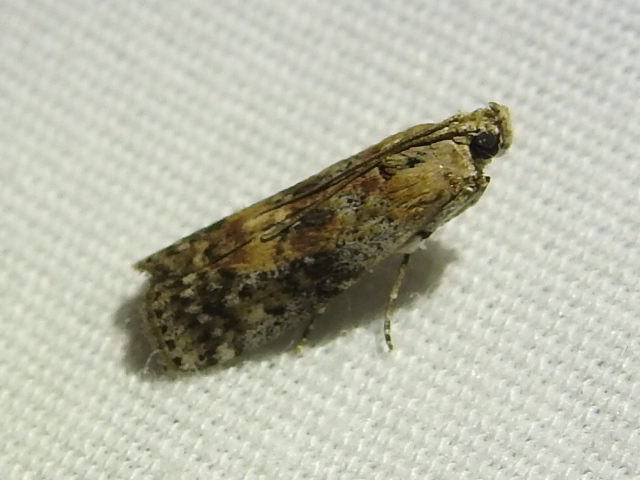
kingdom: Animalia
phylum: Arthropoda
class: Insecta
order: Lepidoptera
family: Pyralidae
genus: Sciota
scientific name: Sciota celtidella
